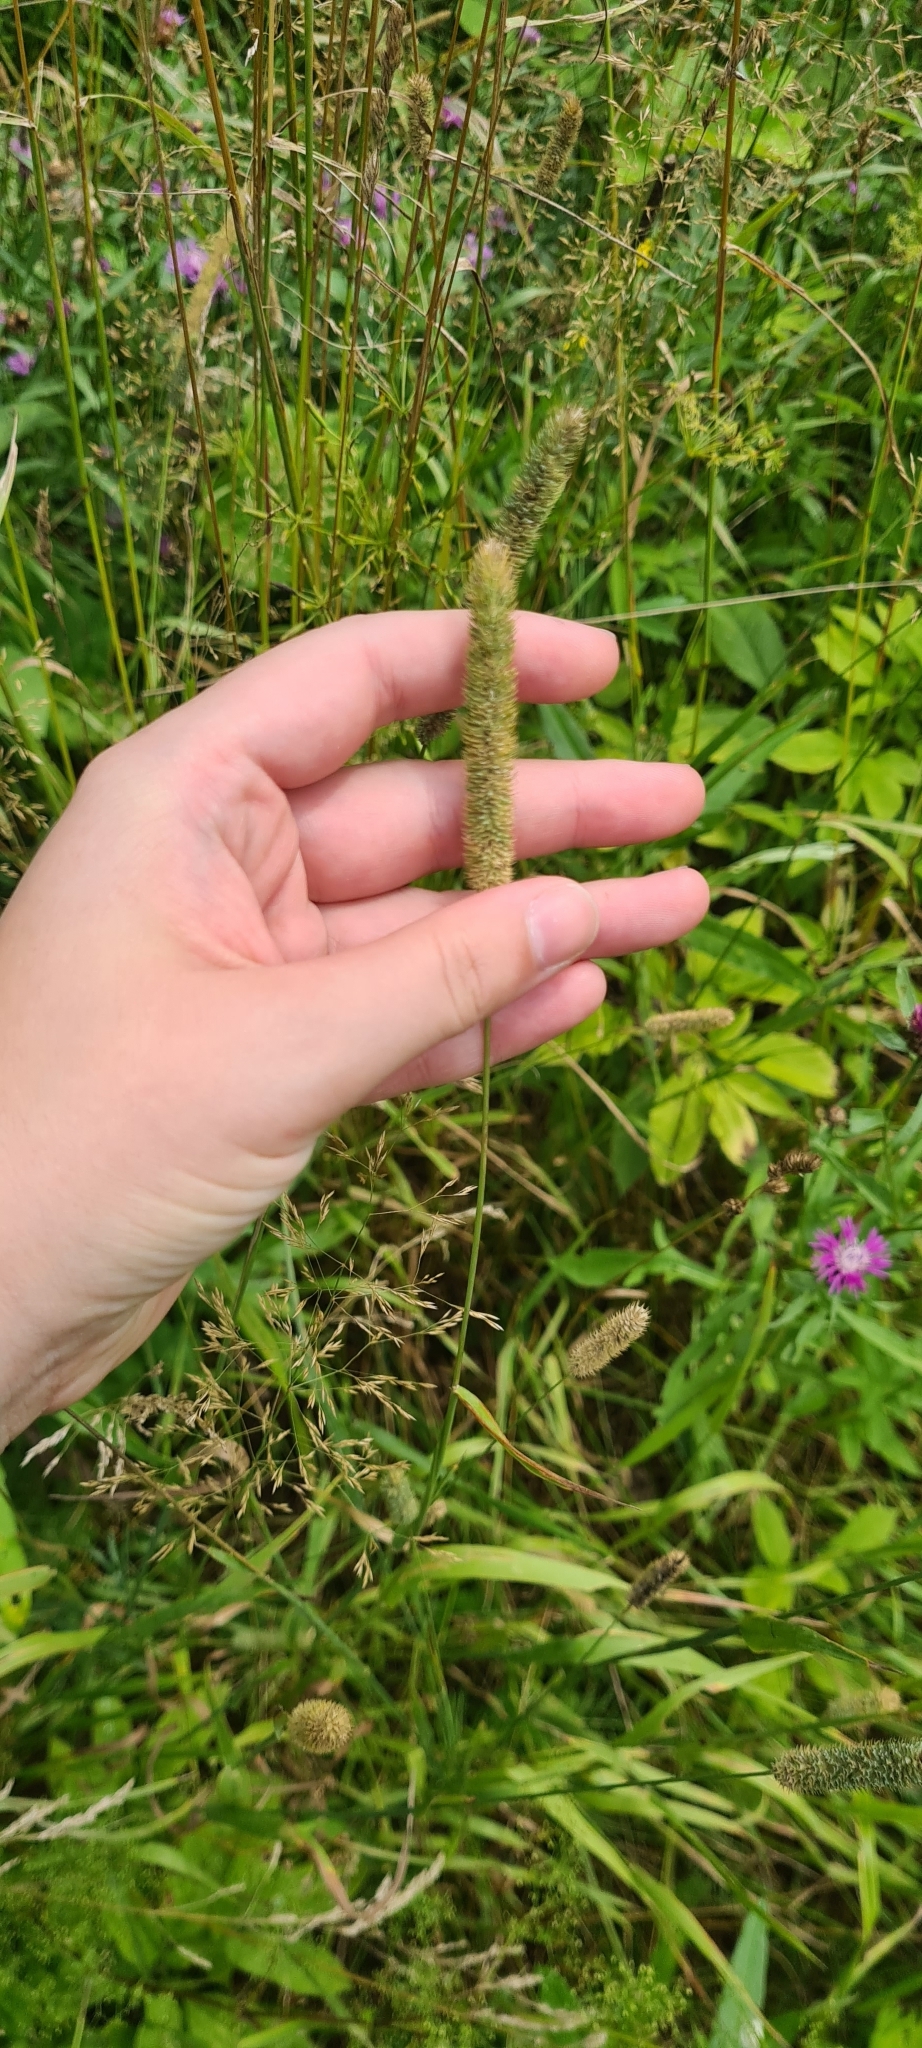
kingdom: Plantae
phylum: Tracheophyta
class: Liliopsida
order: Poales
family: Poaceae
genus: Phleum
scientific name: Phleum pratense
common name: Timothy grass
